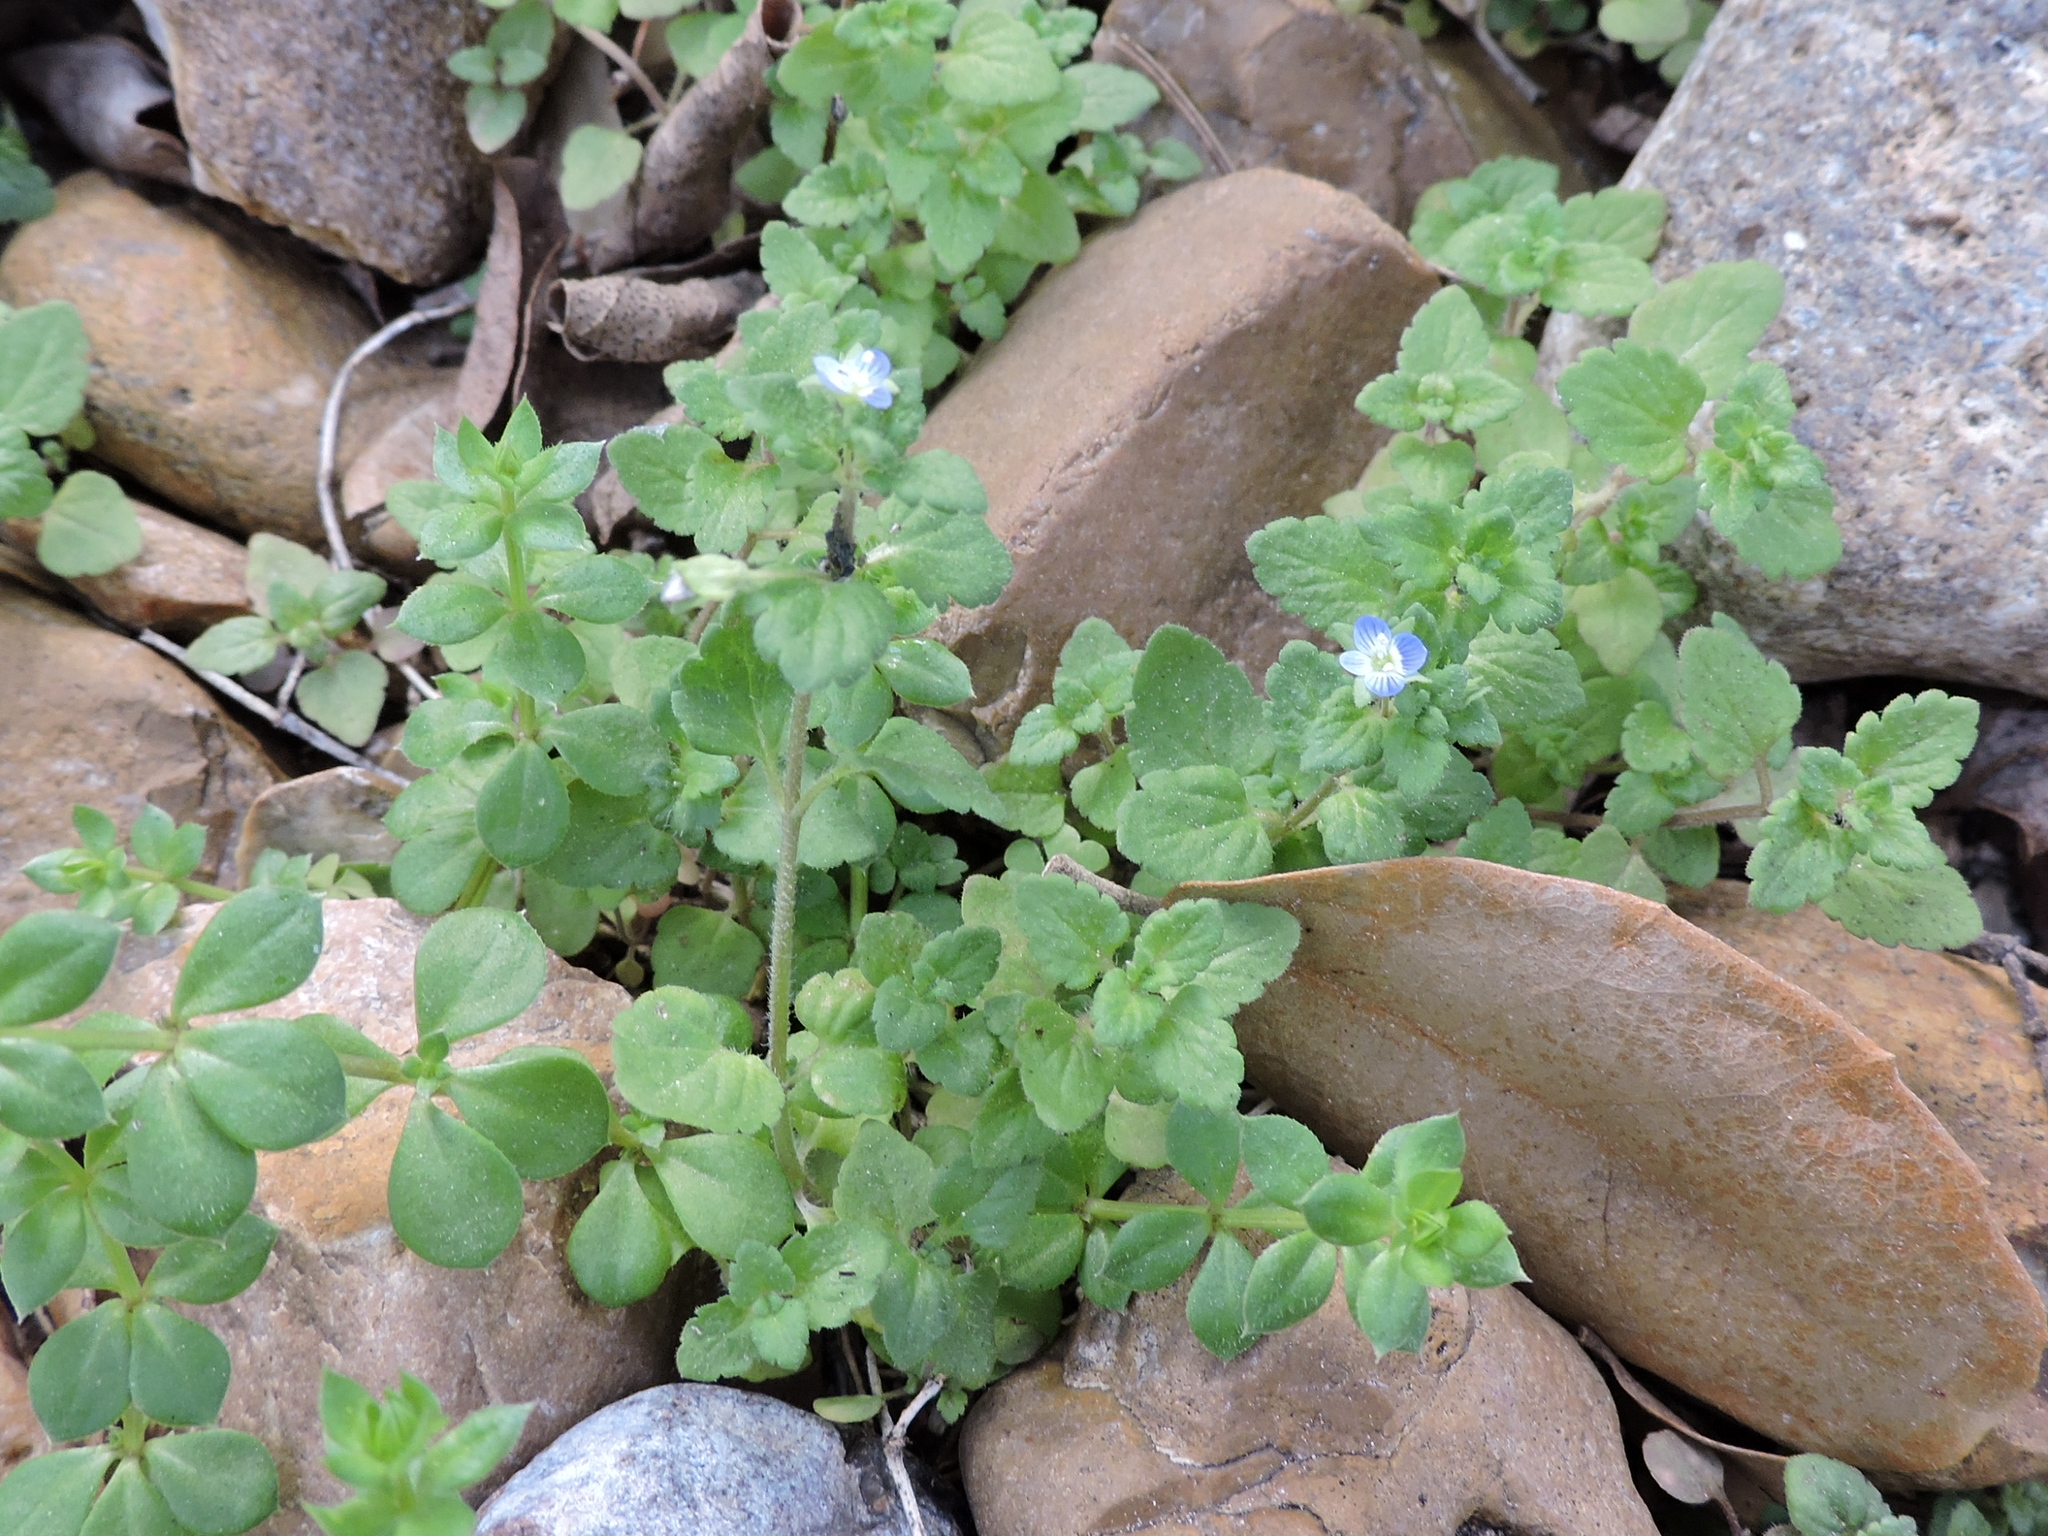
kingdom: Plantae
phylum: Tracheophyta
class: Magnoliopsida
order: Lamiales
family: Plantaginaceae
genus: Veronica
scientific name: Veronica polita
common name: Grey field-speedwell
